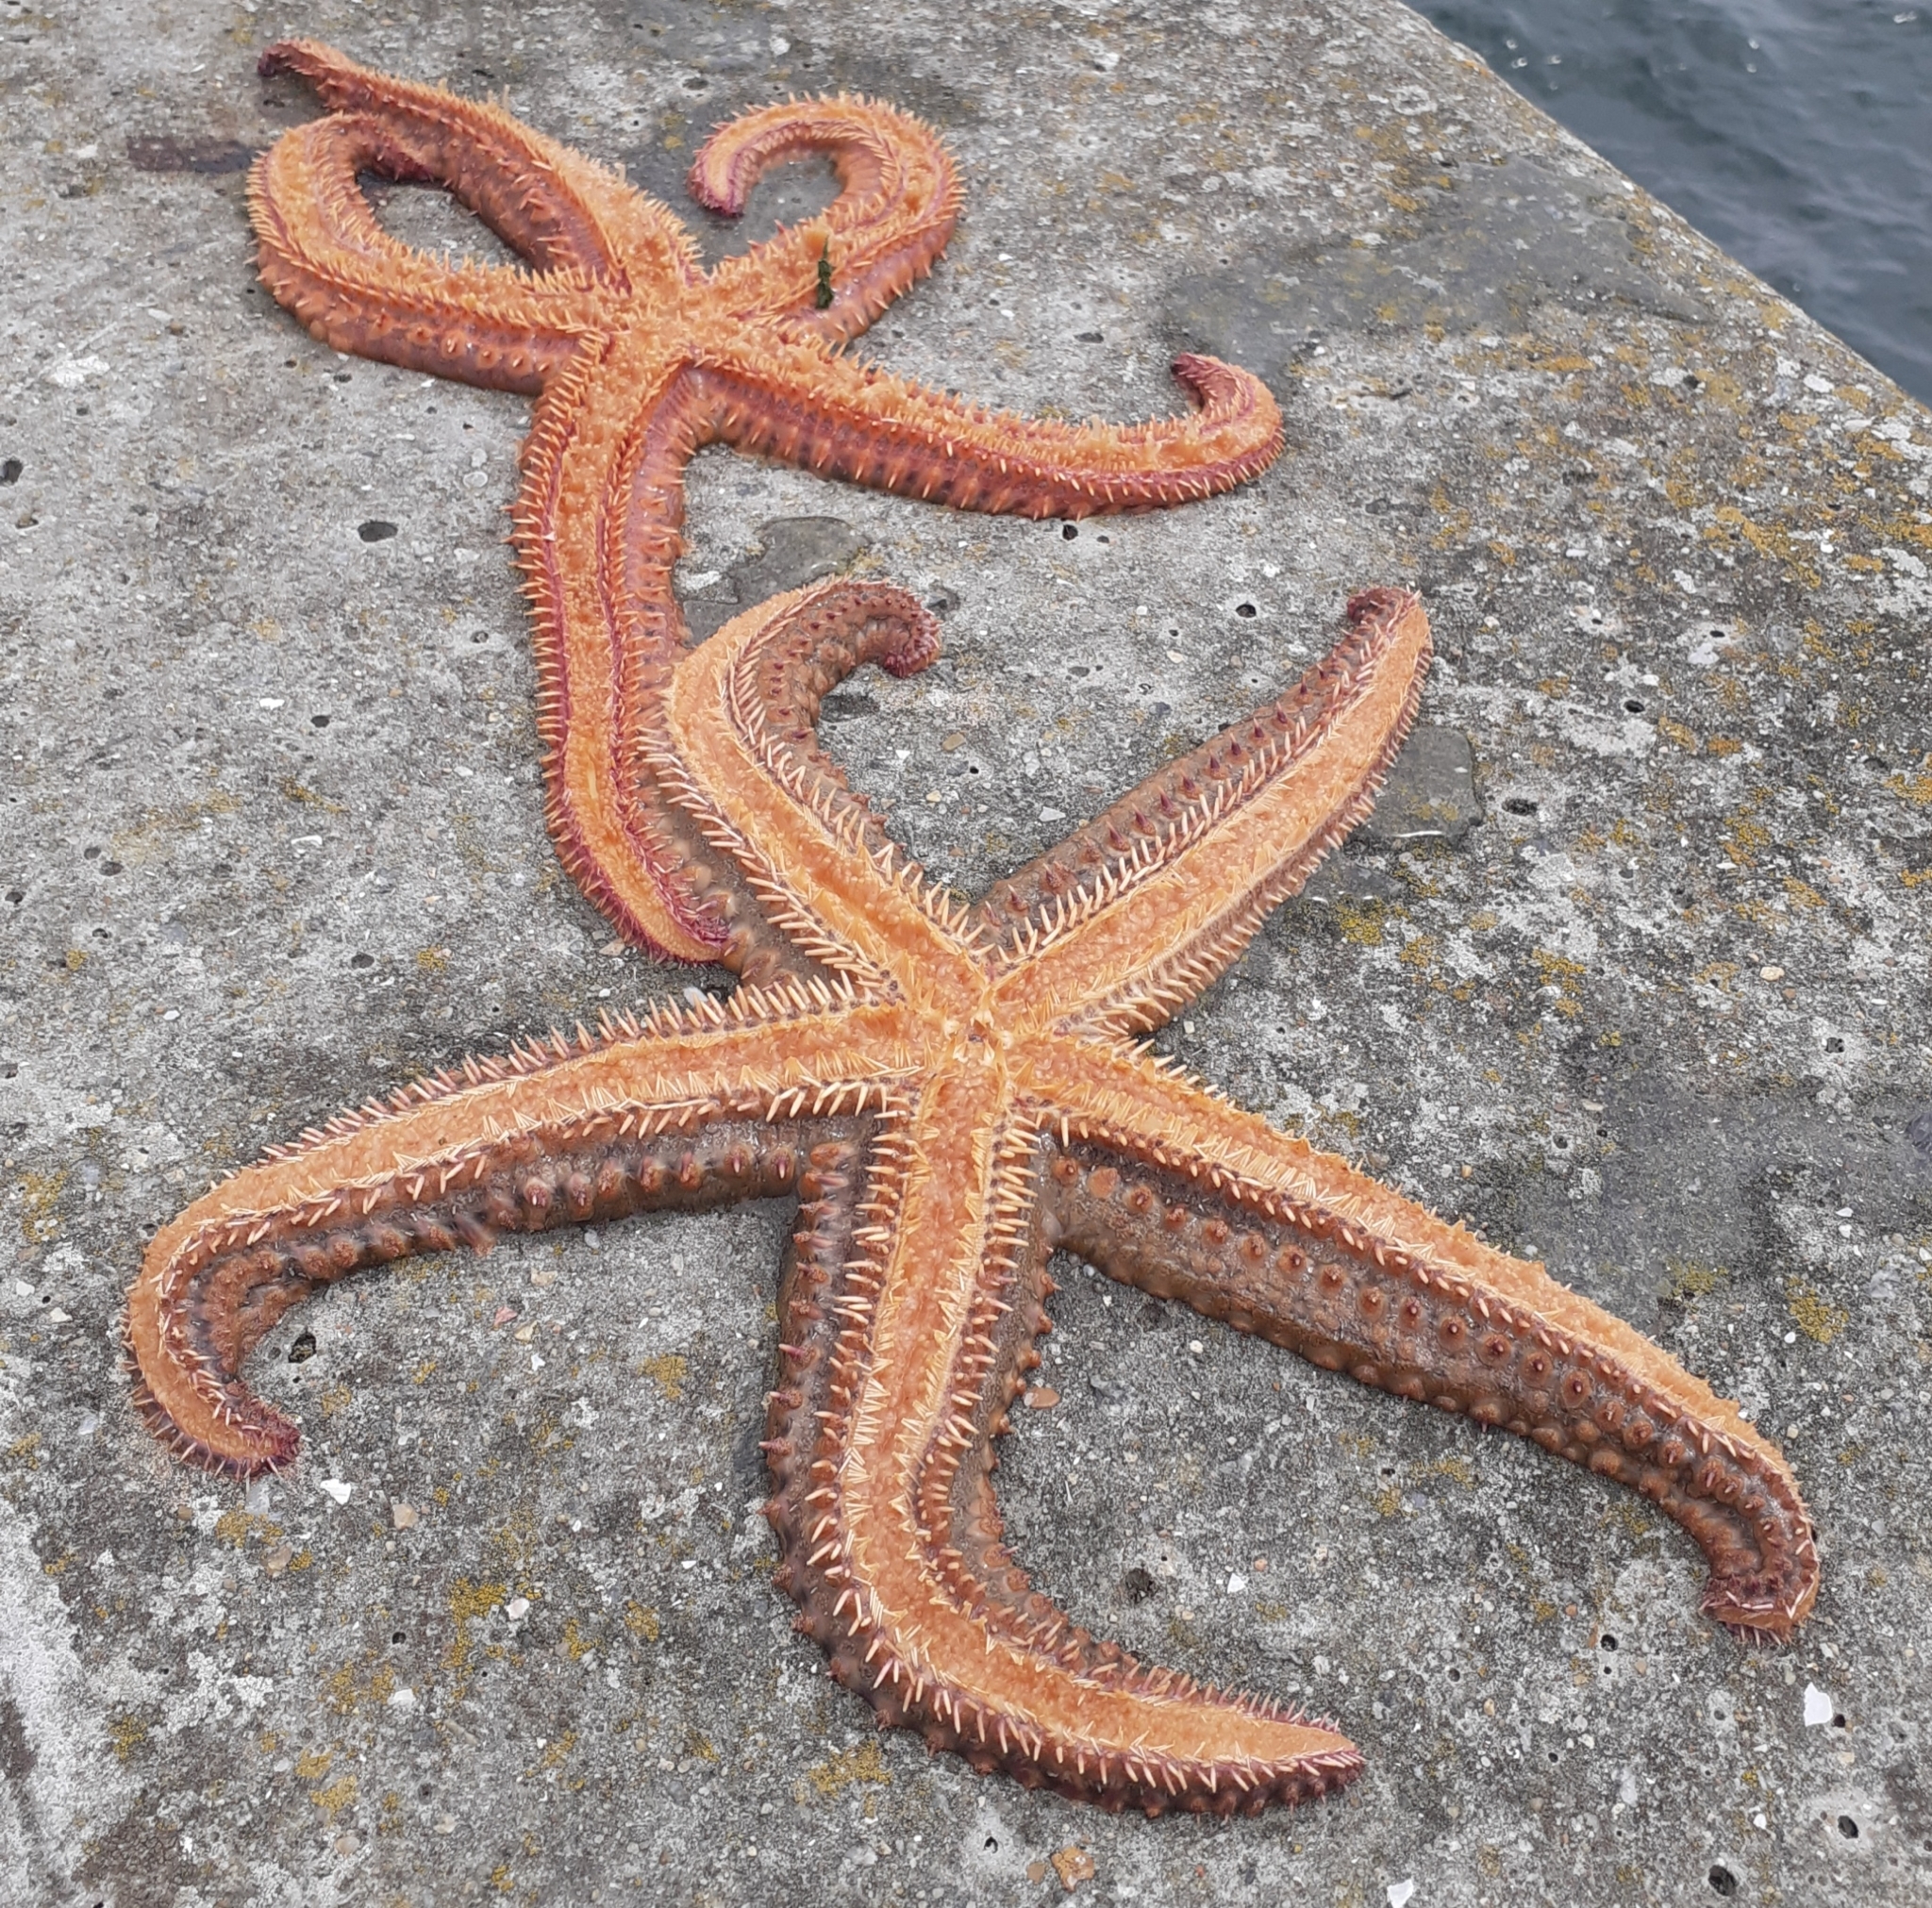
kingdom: Animalia
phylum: Echinodermata
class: Asteroidea
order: Forcipulatida
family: Asteriidae
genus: Marthasterias
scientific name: Marthasterias glacialis
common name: Spiny starfish
